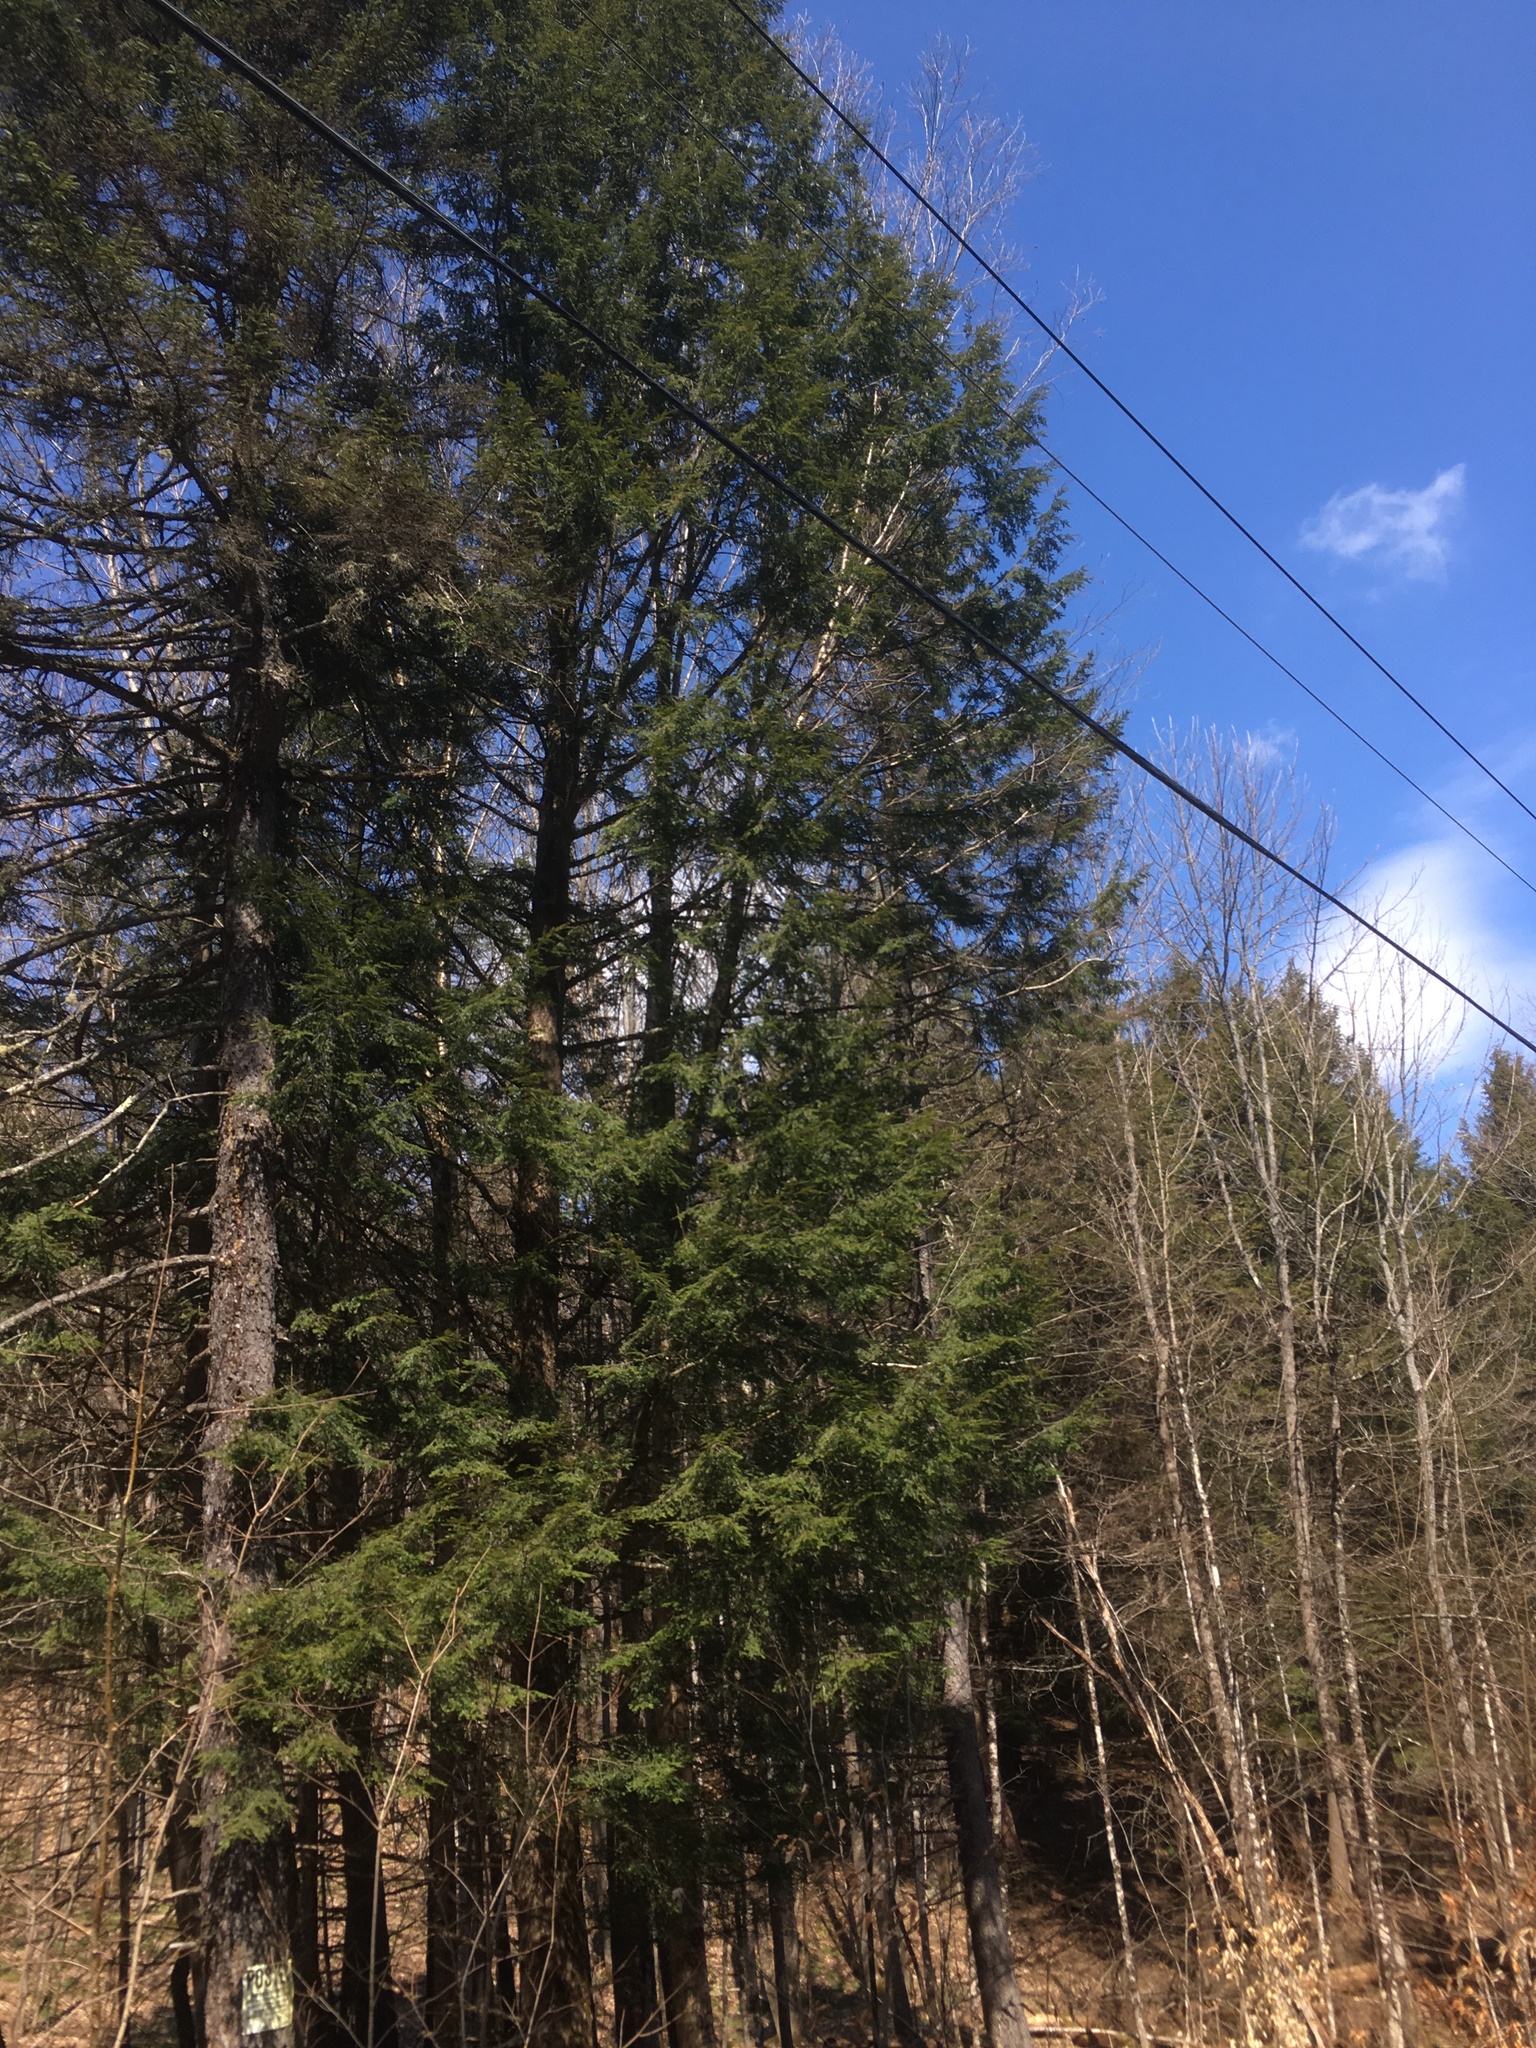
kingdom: Plantae
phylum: Tracheophyta
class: Pinopsida
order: Pinales
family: Pinaceae
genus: Tsuga
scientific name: Tsuga canadensis
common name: Eastern hemlock
